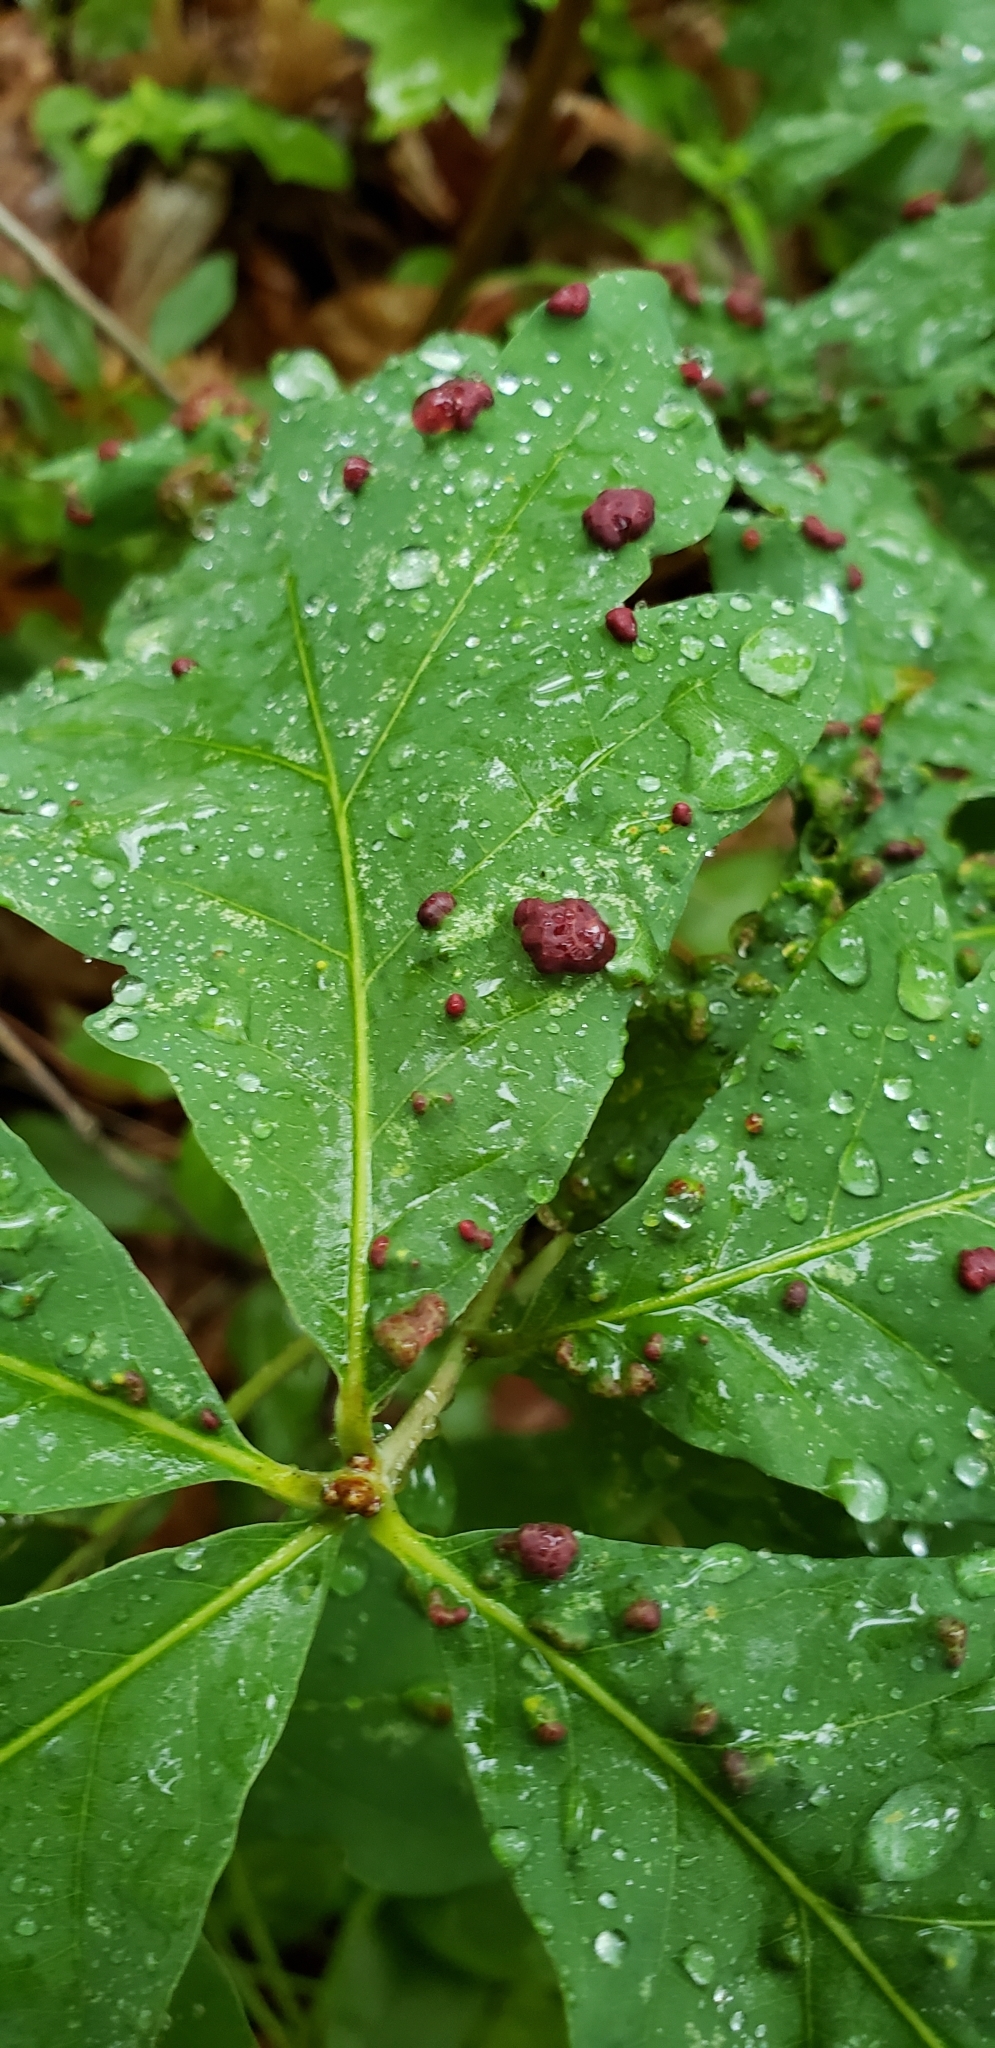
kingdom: Animalia
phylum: Arthropoda
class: Arachnida
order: Trombidiformes
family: Eriophyidae
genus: Aceria
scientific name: Aceria
